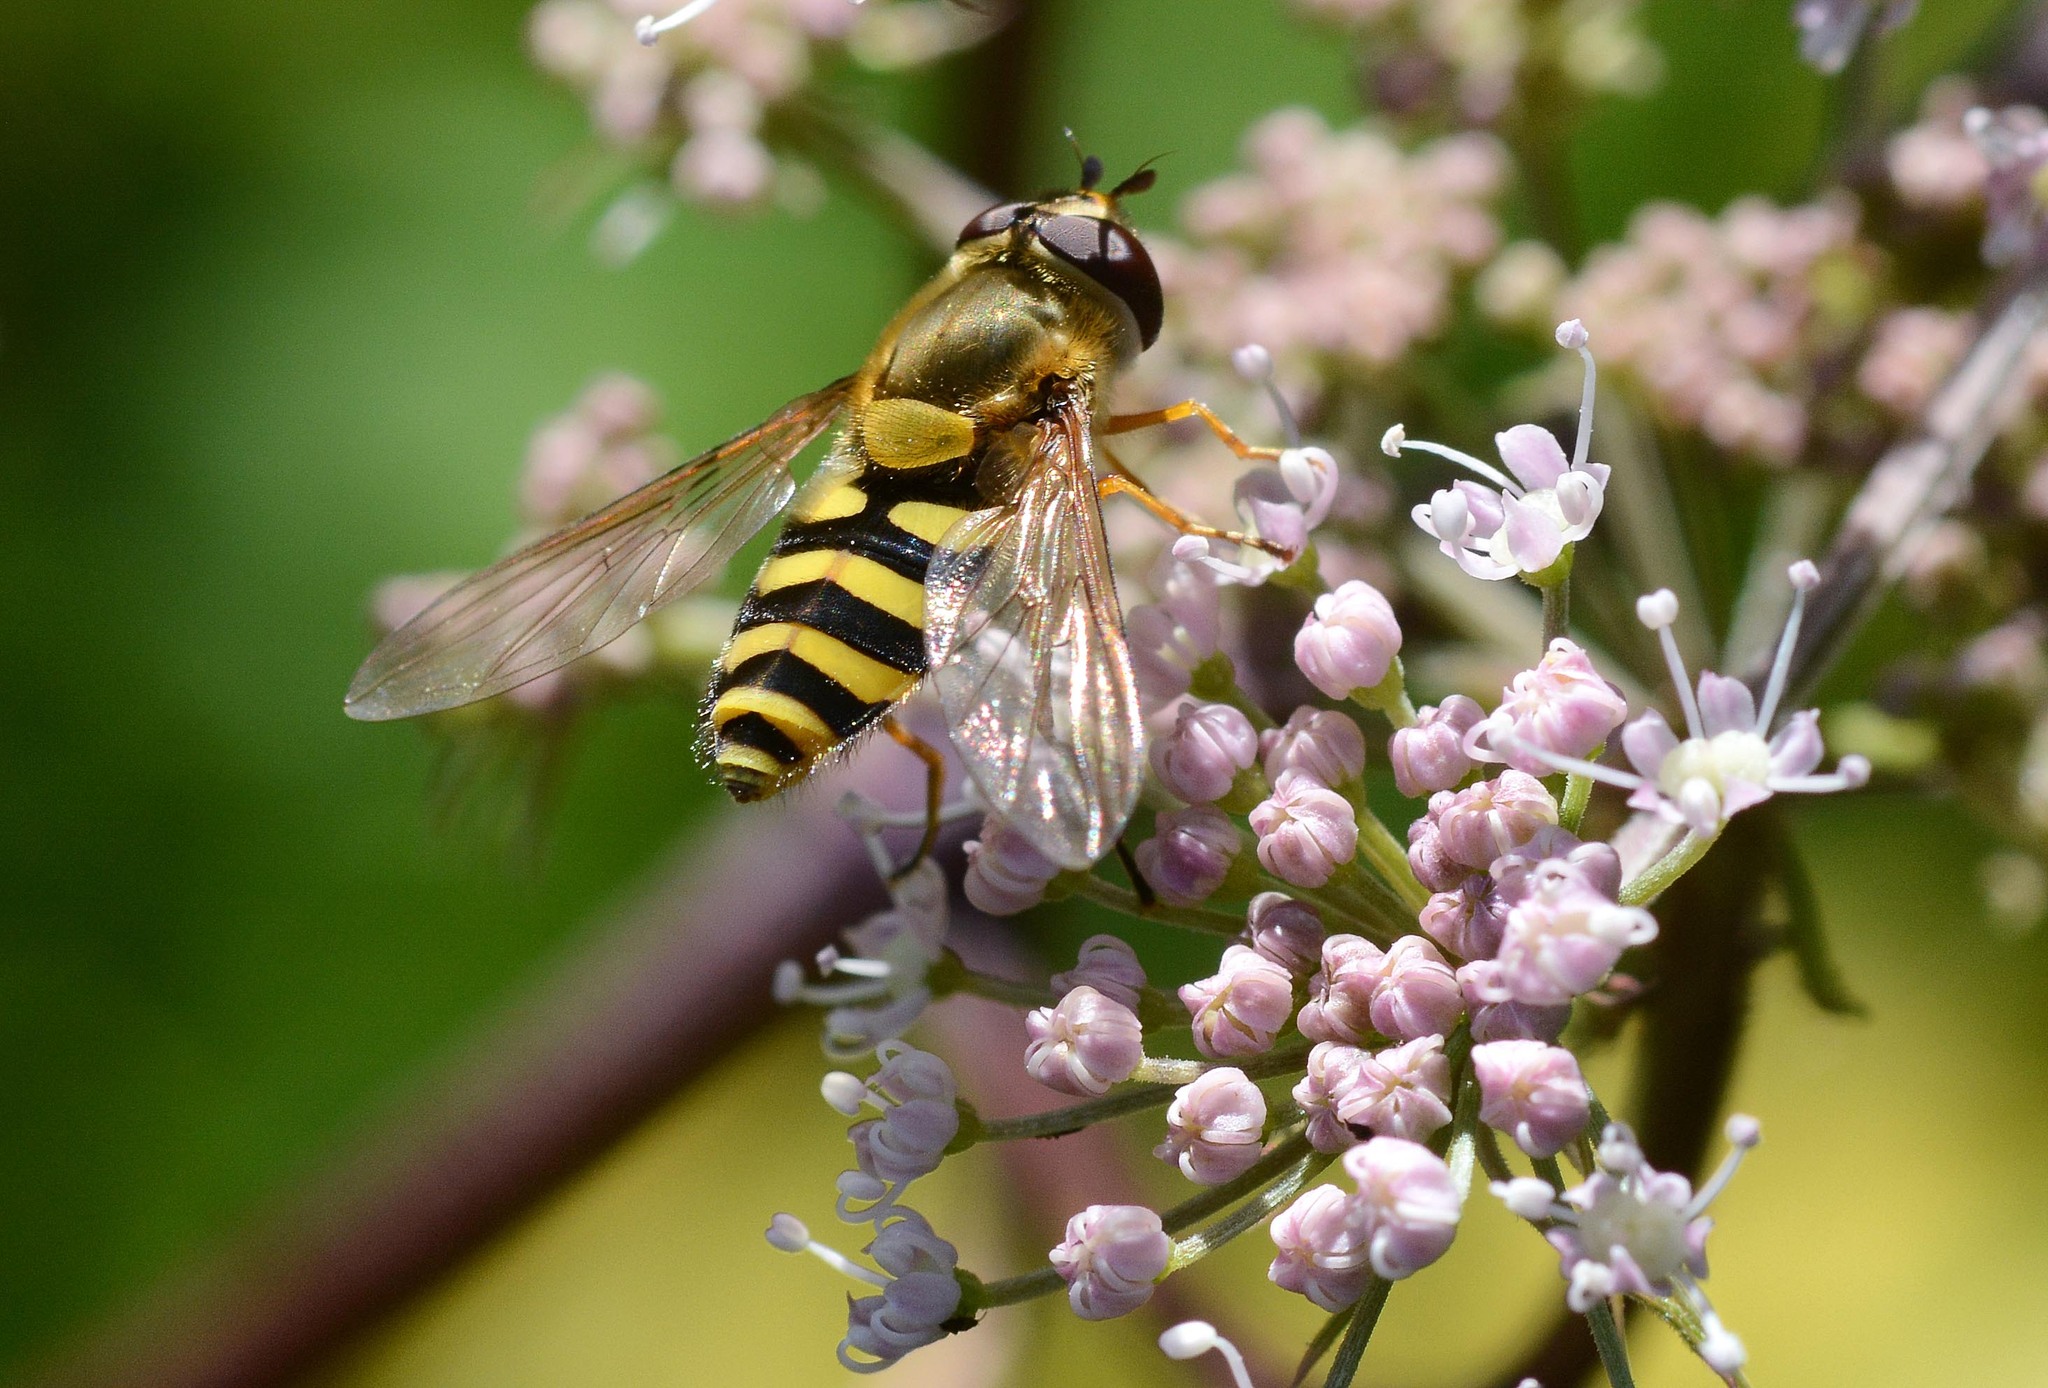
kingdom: Animalia
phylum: Arthropoda
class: Insecta
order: Diptera
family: Syrphidae
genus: Syrphus
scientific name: Syrphus
